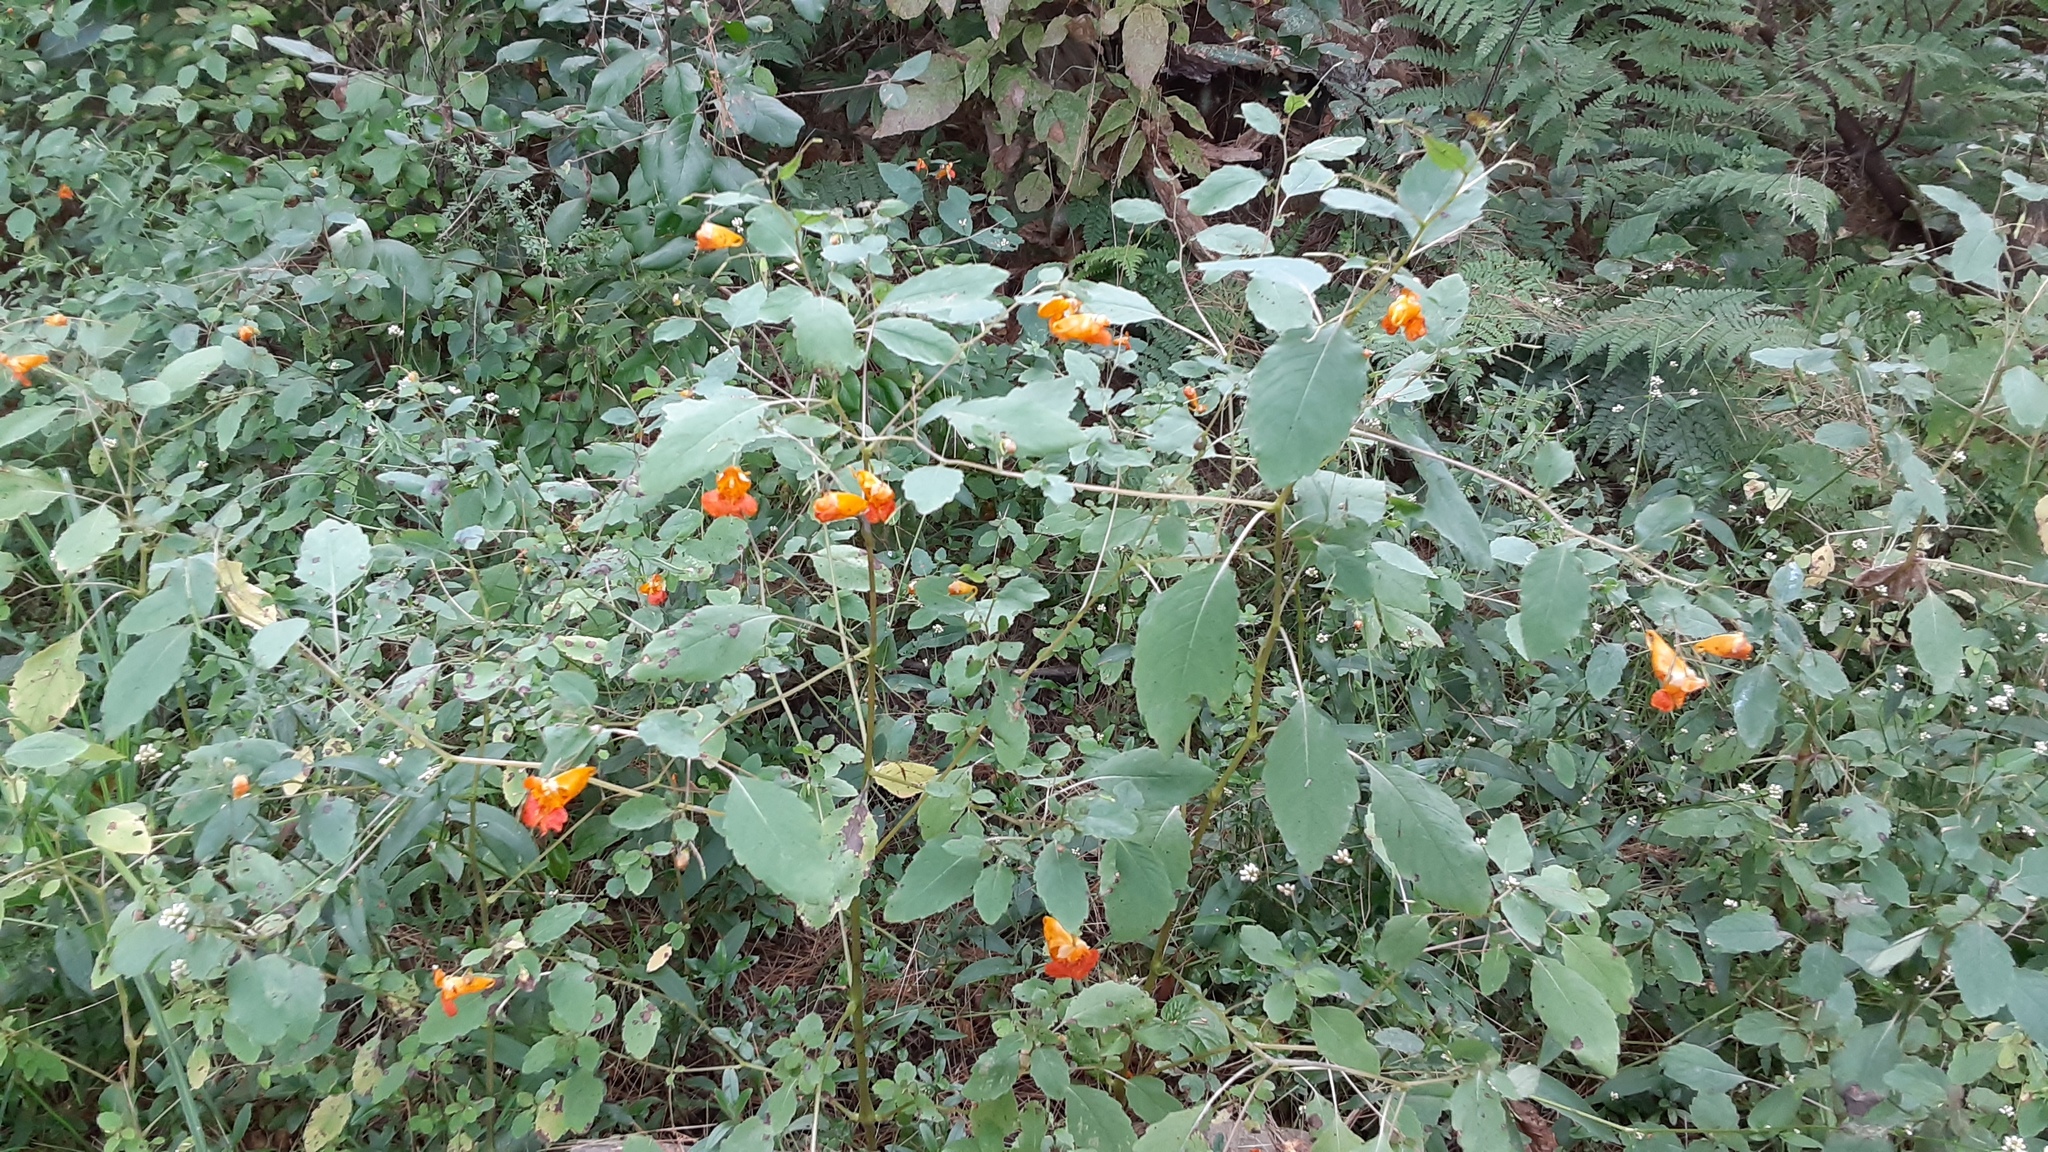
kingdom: Plantae
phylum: Tracheophyta
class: Magnoliopsida
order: Ericales
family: Balsaminaceae
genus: Impatiens
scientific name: Impatiens capensis
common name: Orange balsam
